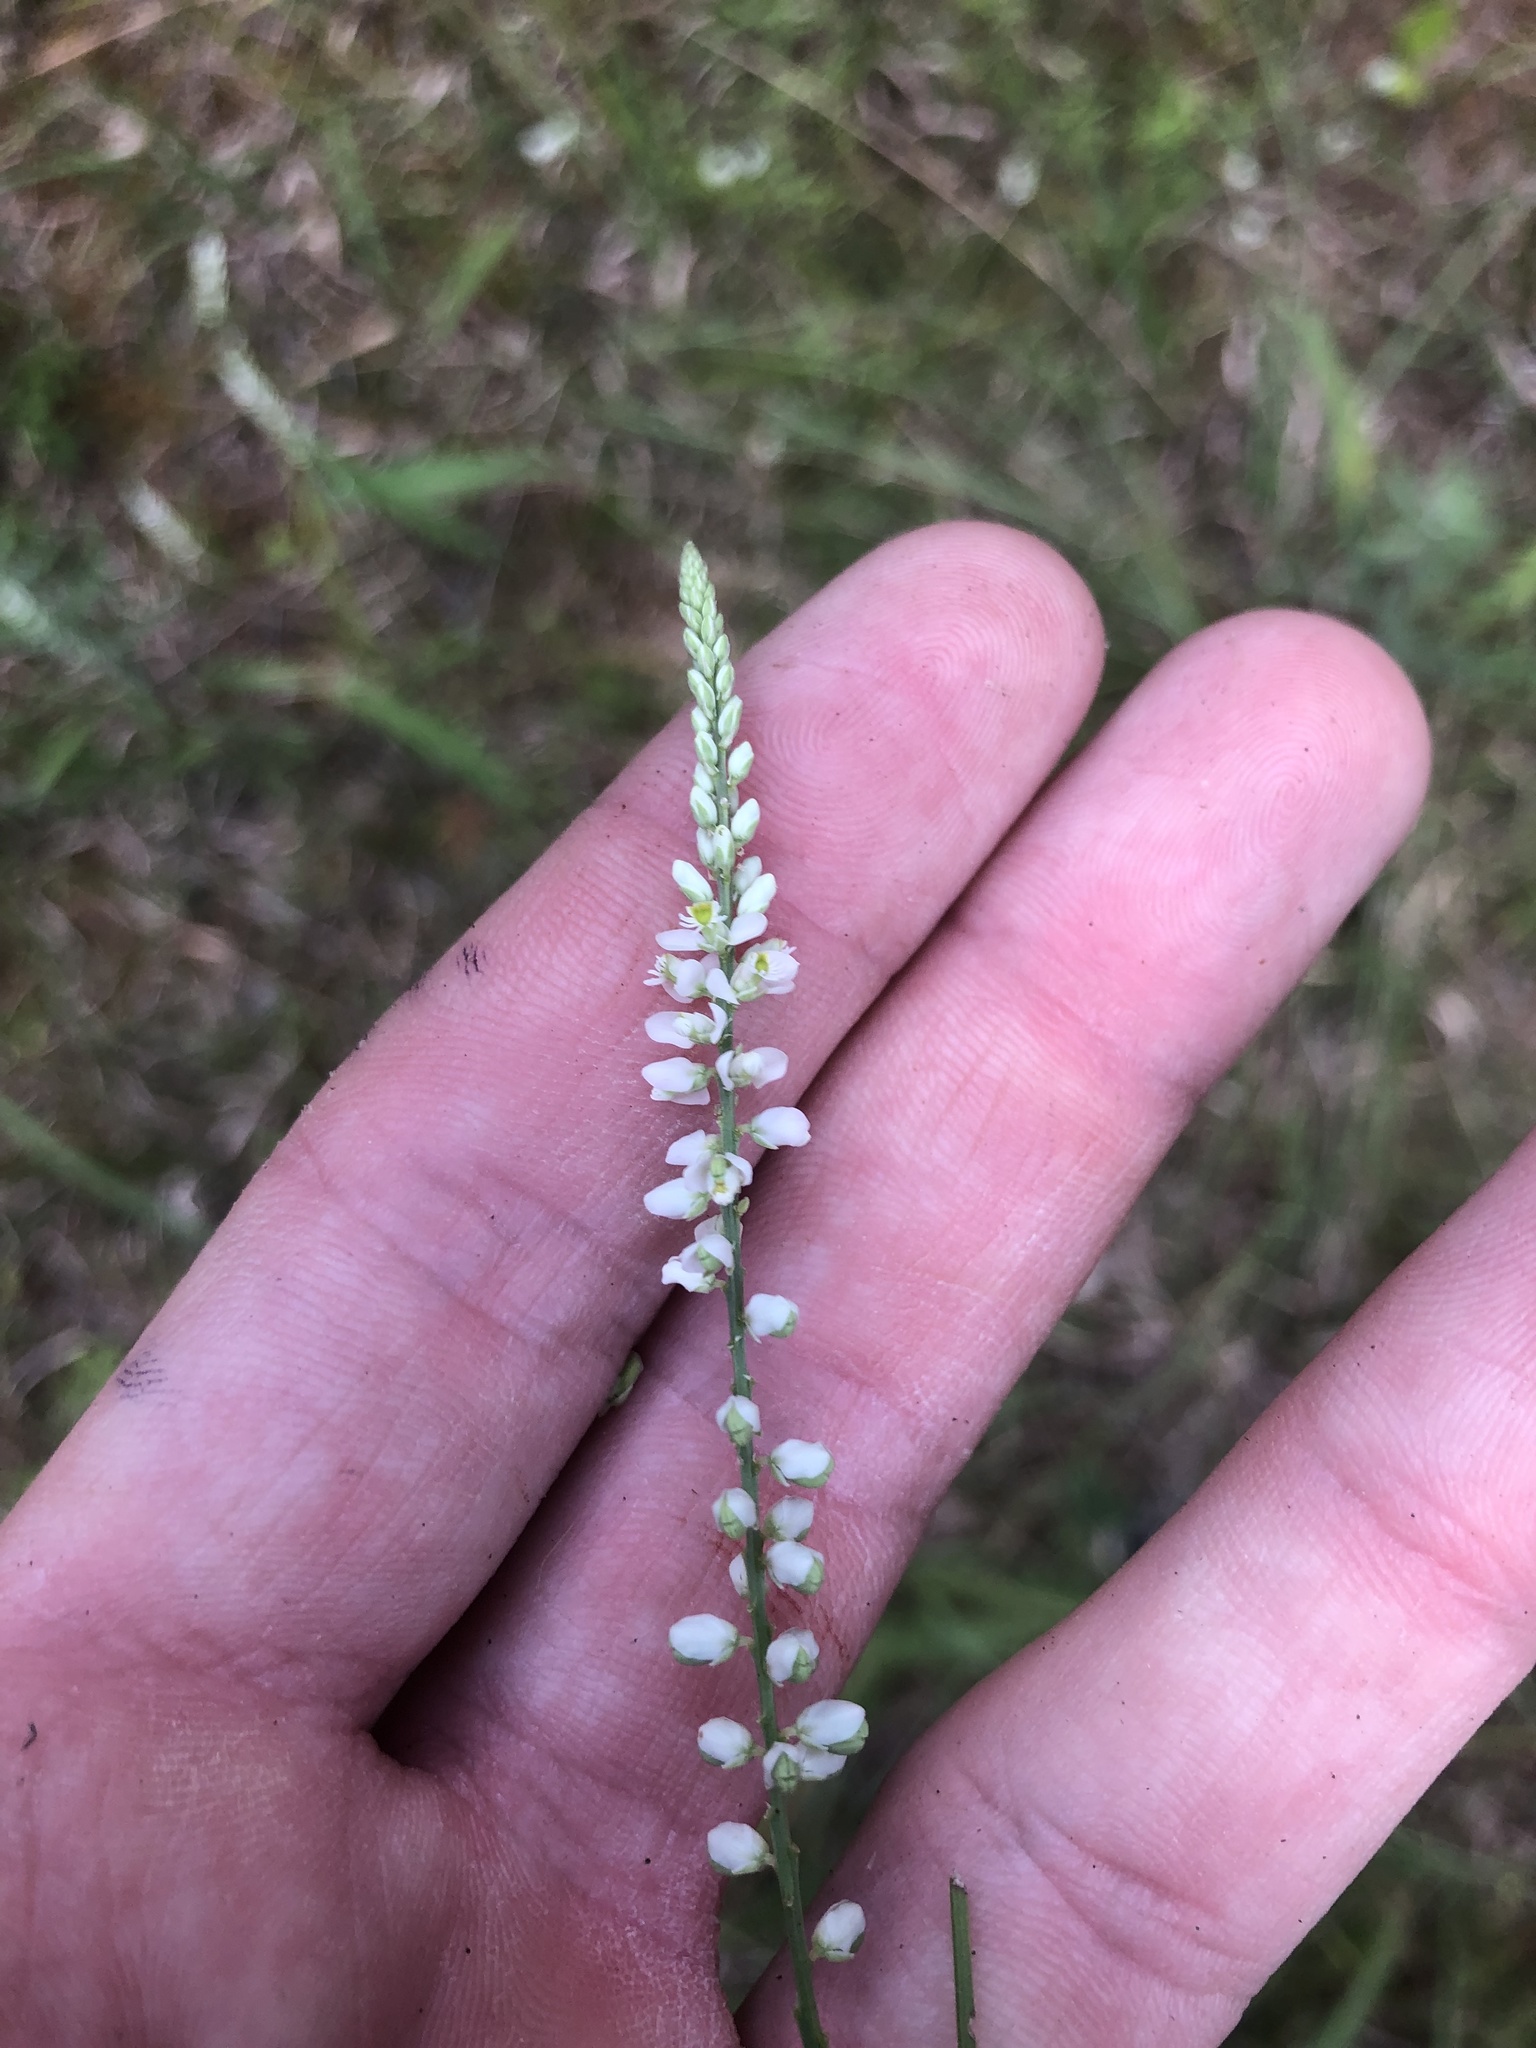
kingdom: Plantae
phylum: Tracheophyta
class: Magnoliopsida
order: Fabales
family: Polygalaceae
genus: Polygala
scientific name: Polygala boykinii
